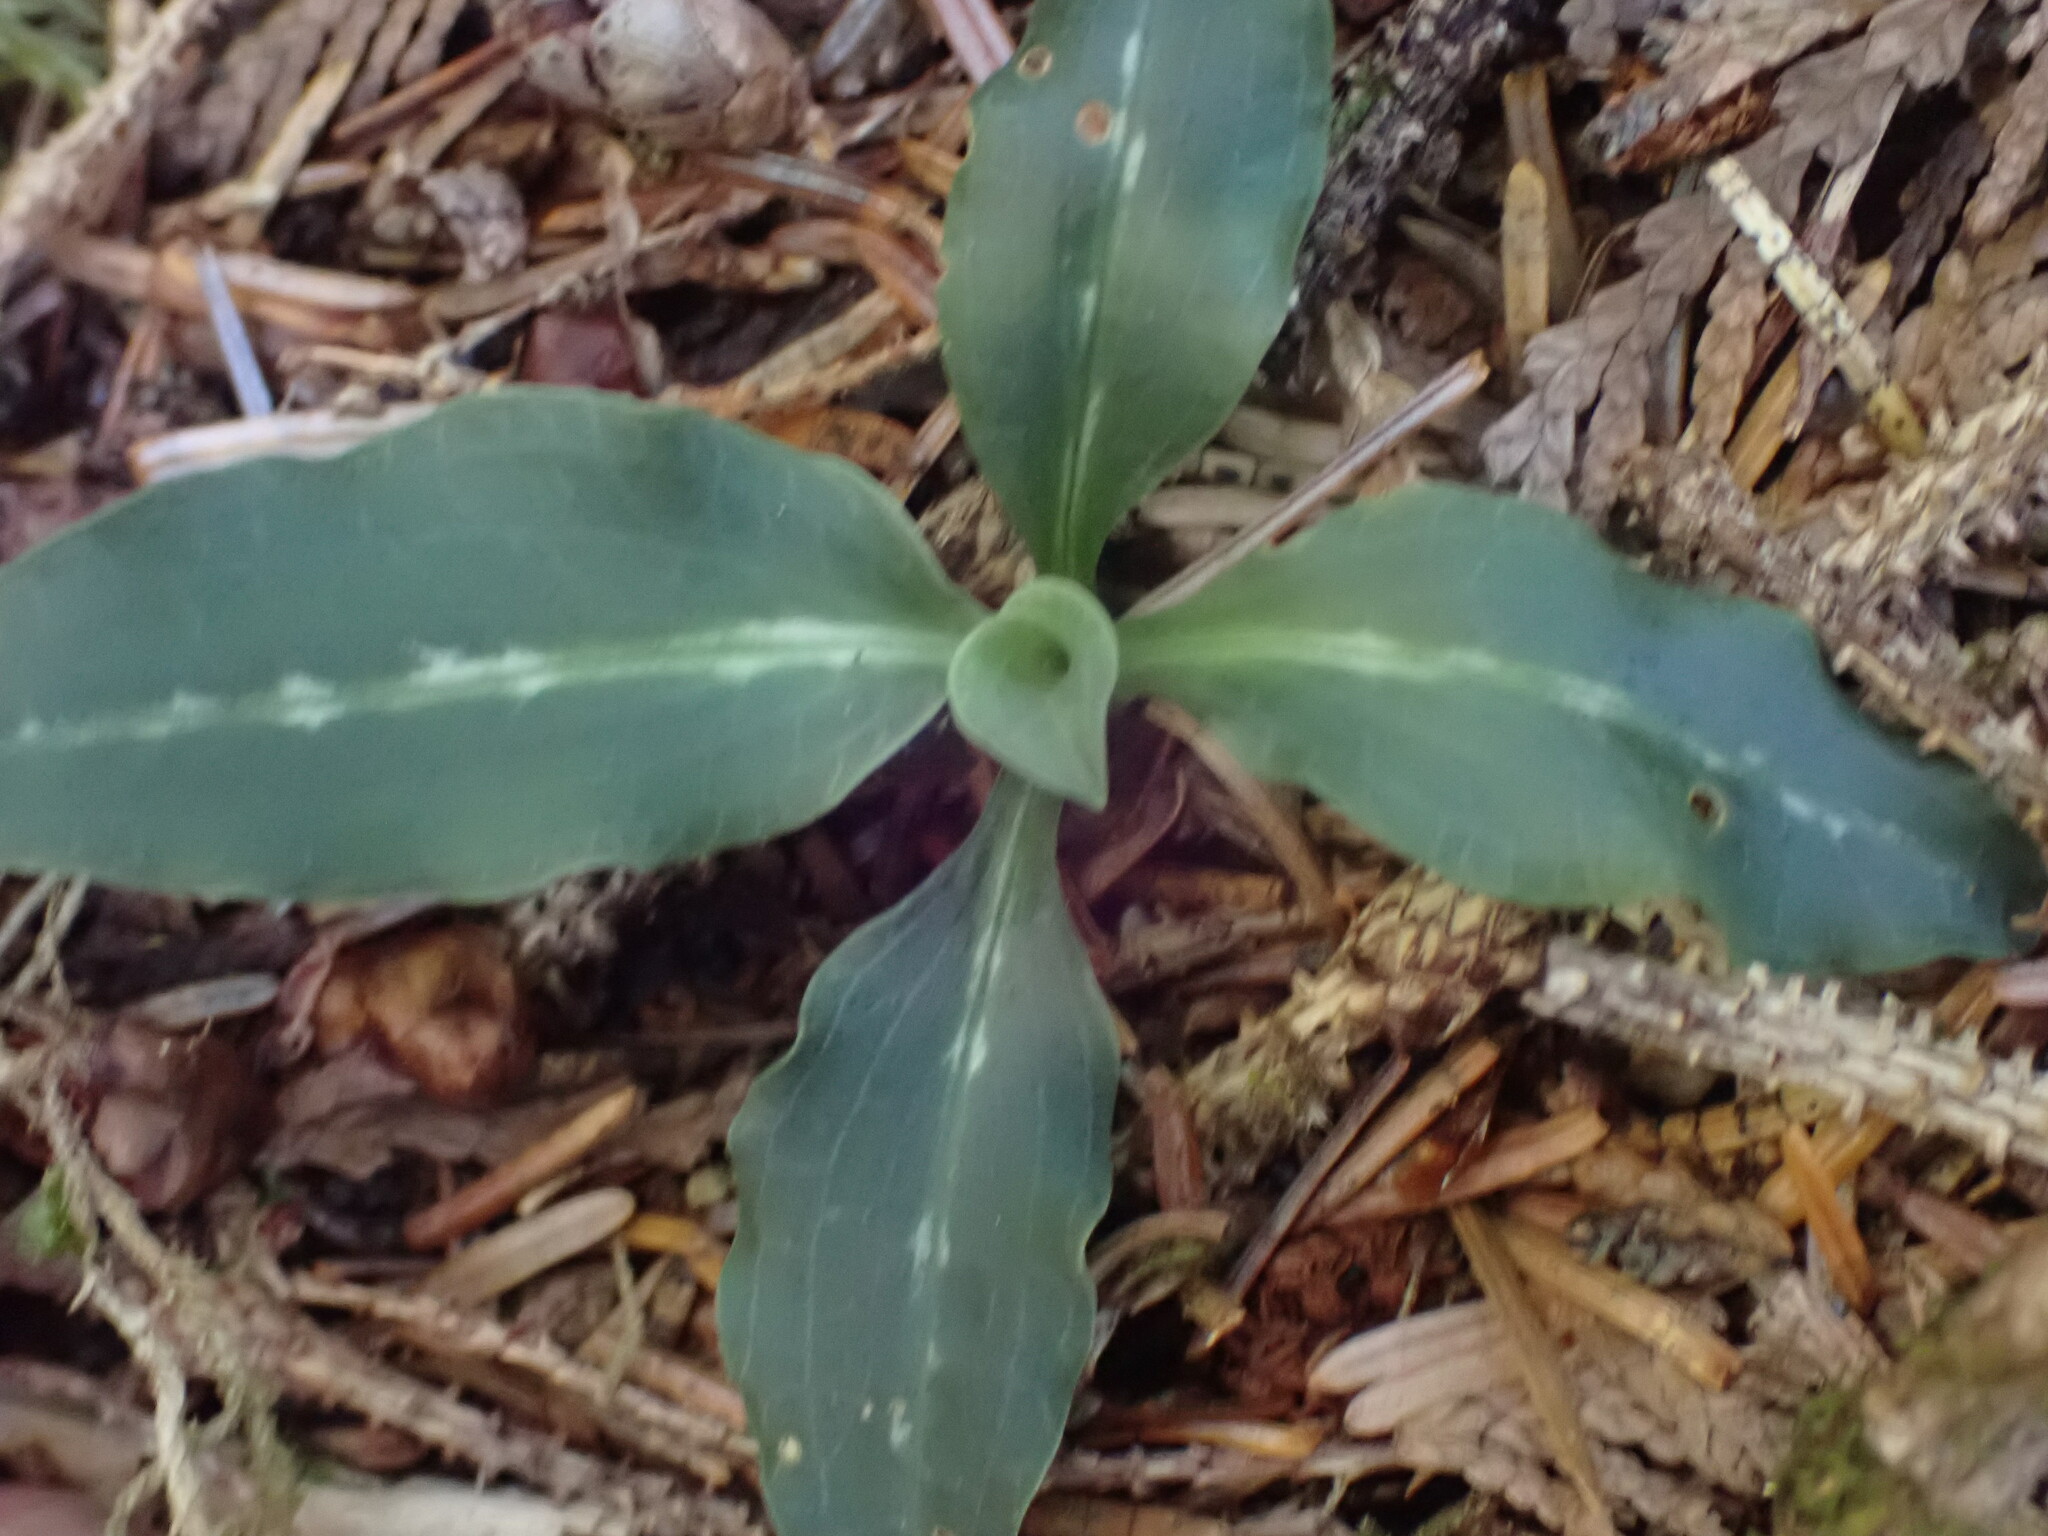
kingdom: Plantae
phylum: Tracheophyta
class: Liliopsida
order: Asparagales
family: Orchidaceae
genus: Goodyera
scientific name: Goodyera oblongifolia
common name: Giant rattlesnake-plantain
